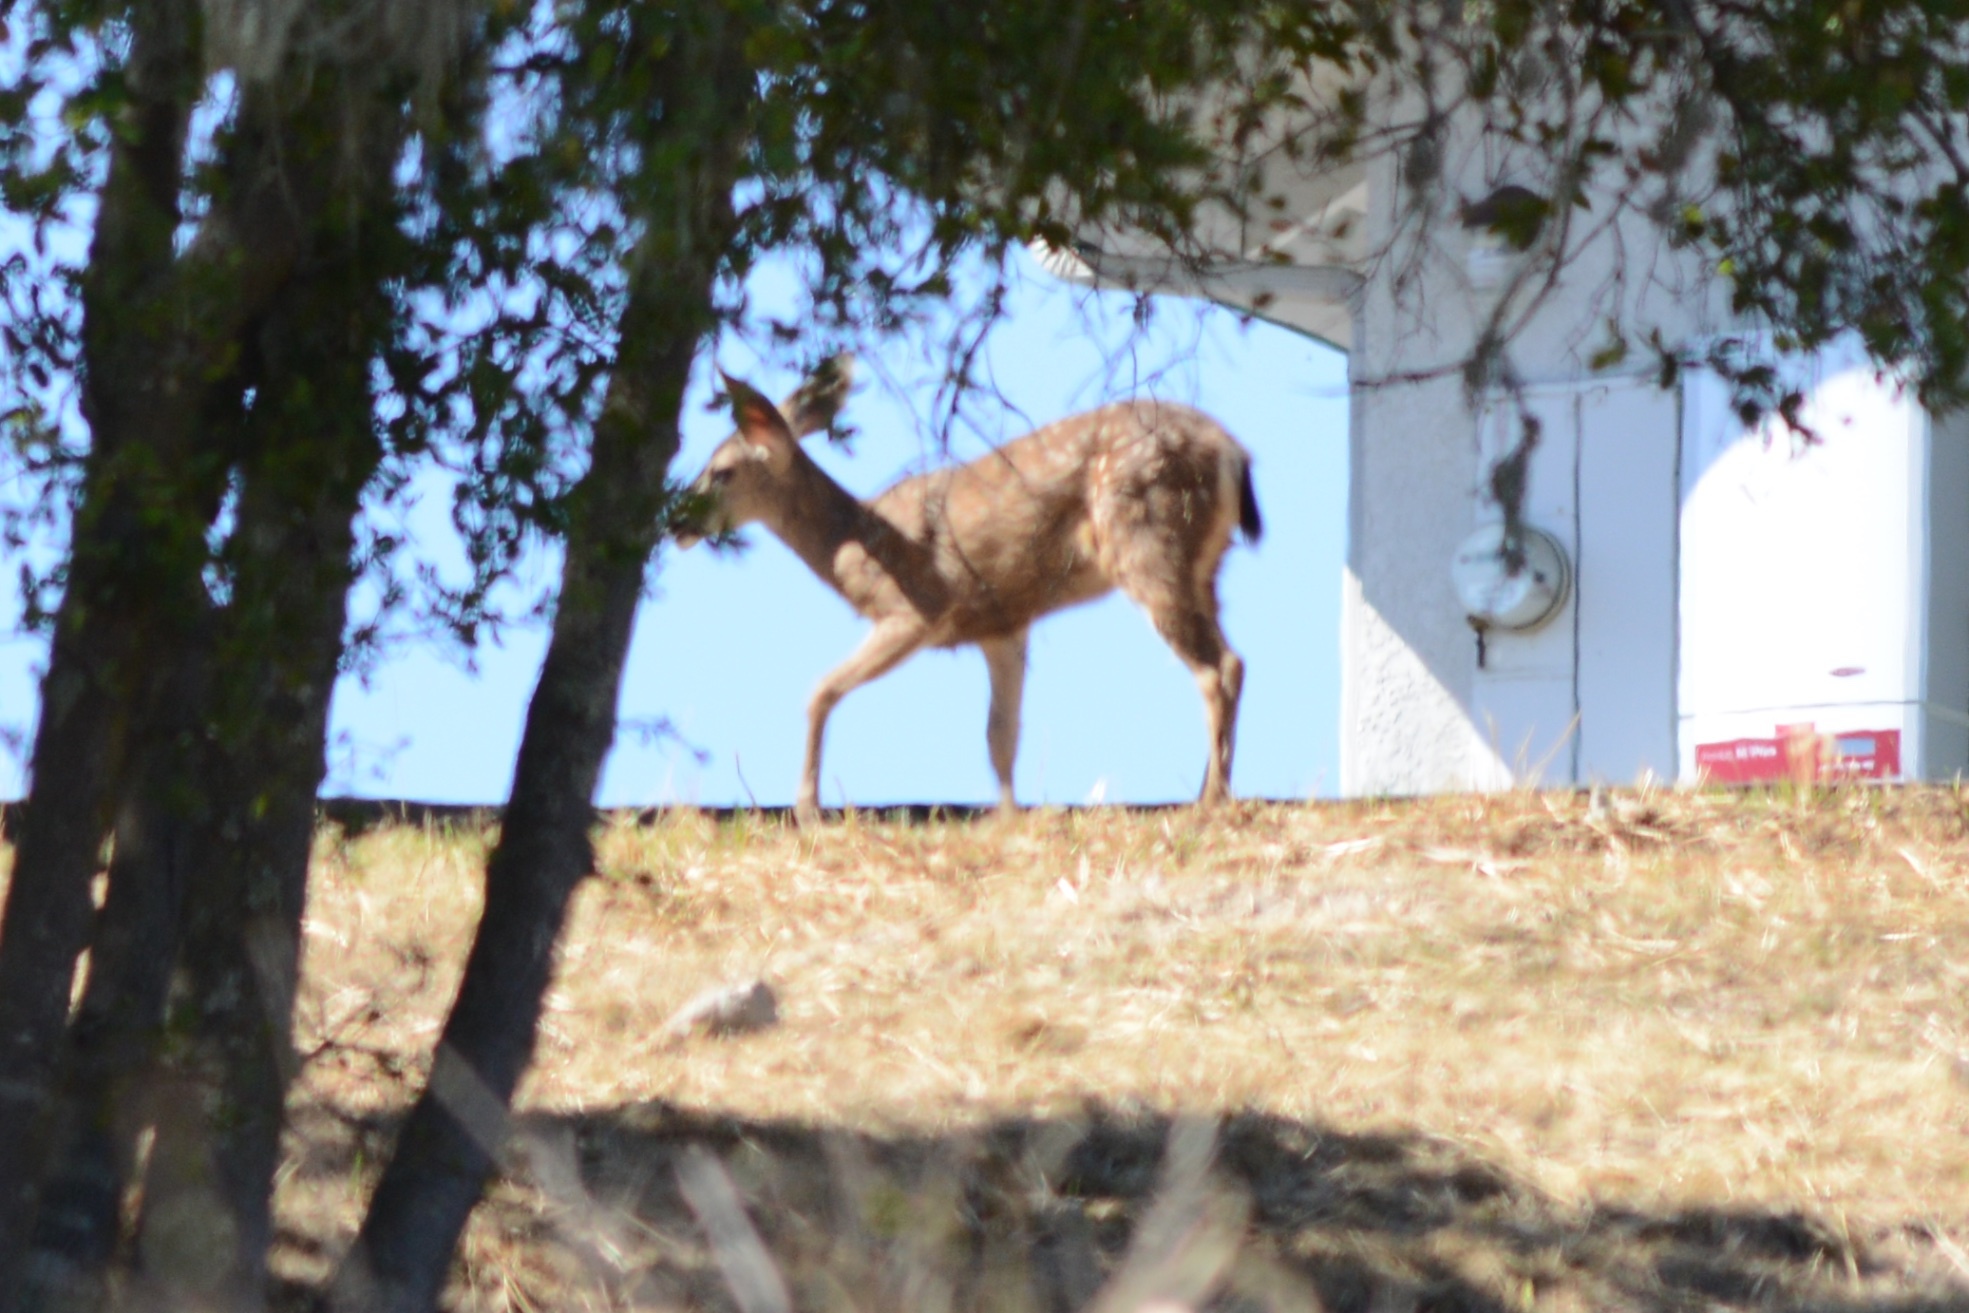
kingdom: Animalia
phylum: Chordata
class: Mammalia
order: Artiodactyla
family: Cervidae
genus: Odocoileus
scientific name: Odocoileus hemionus
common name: Mule deer
